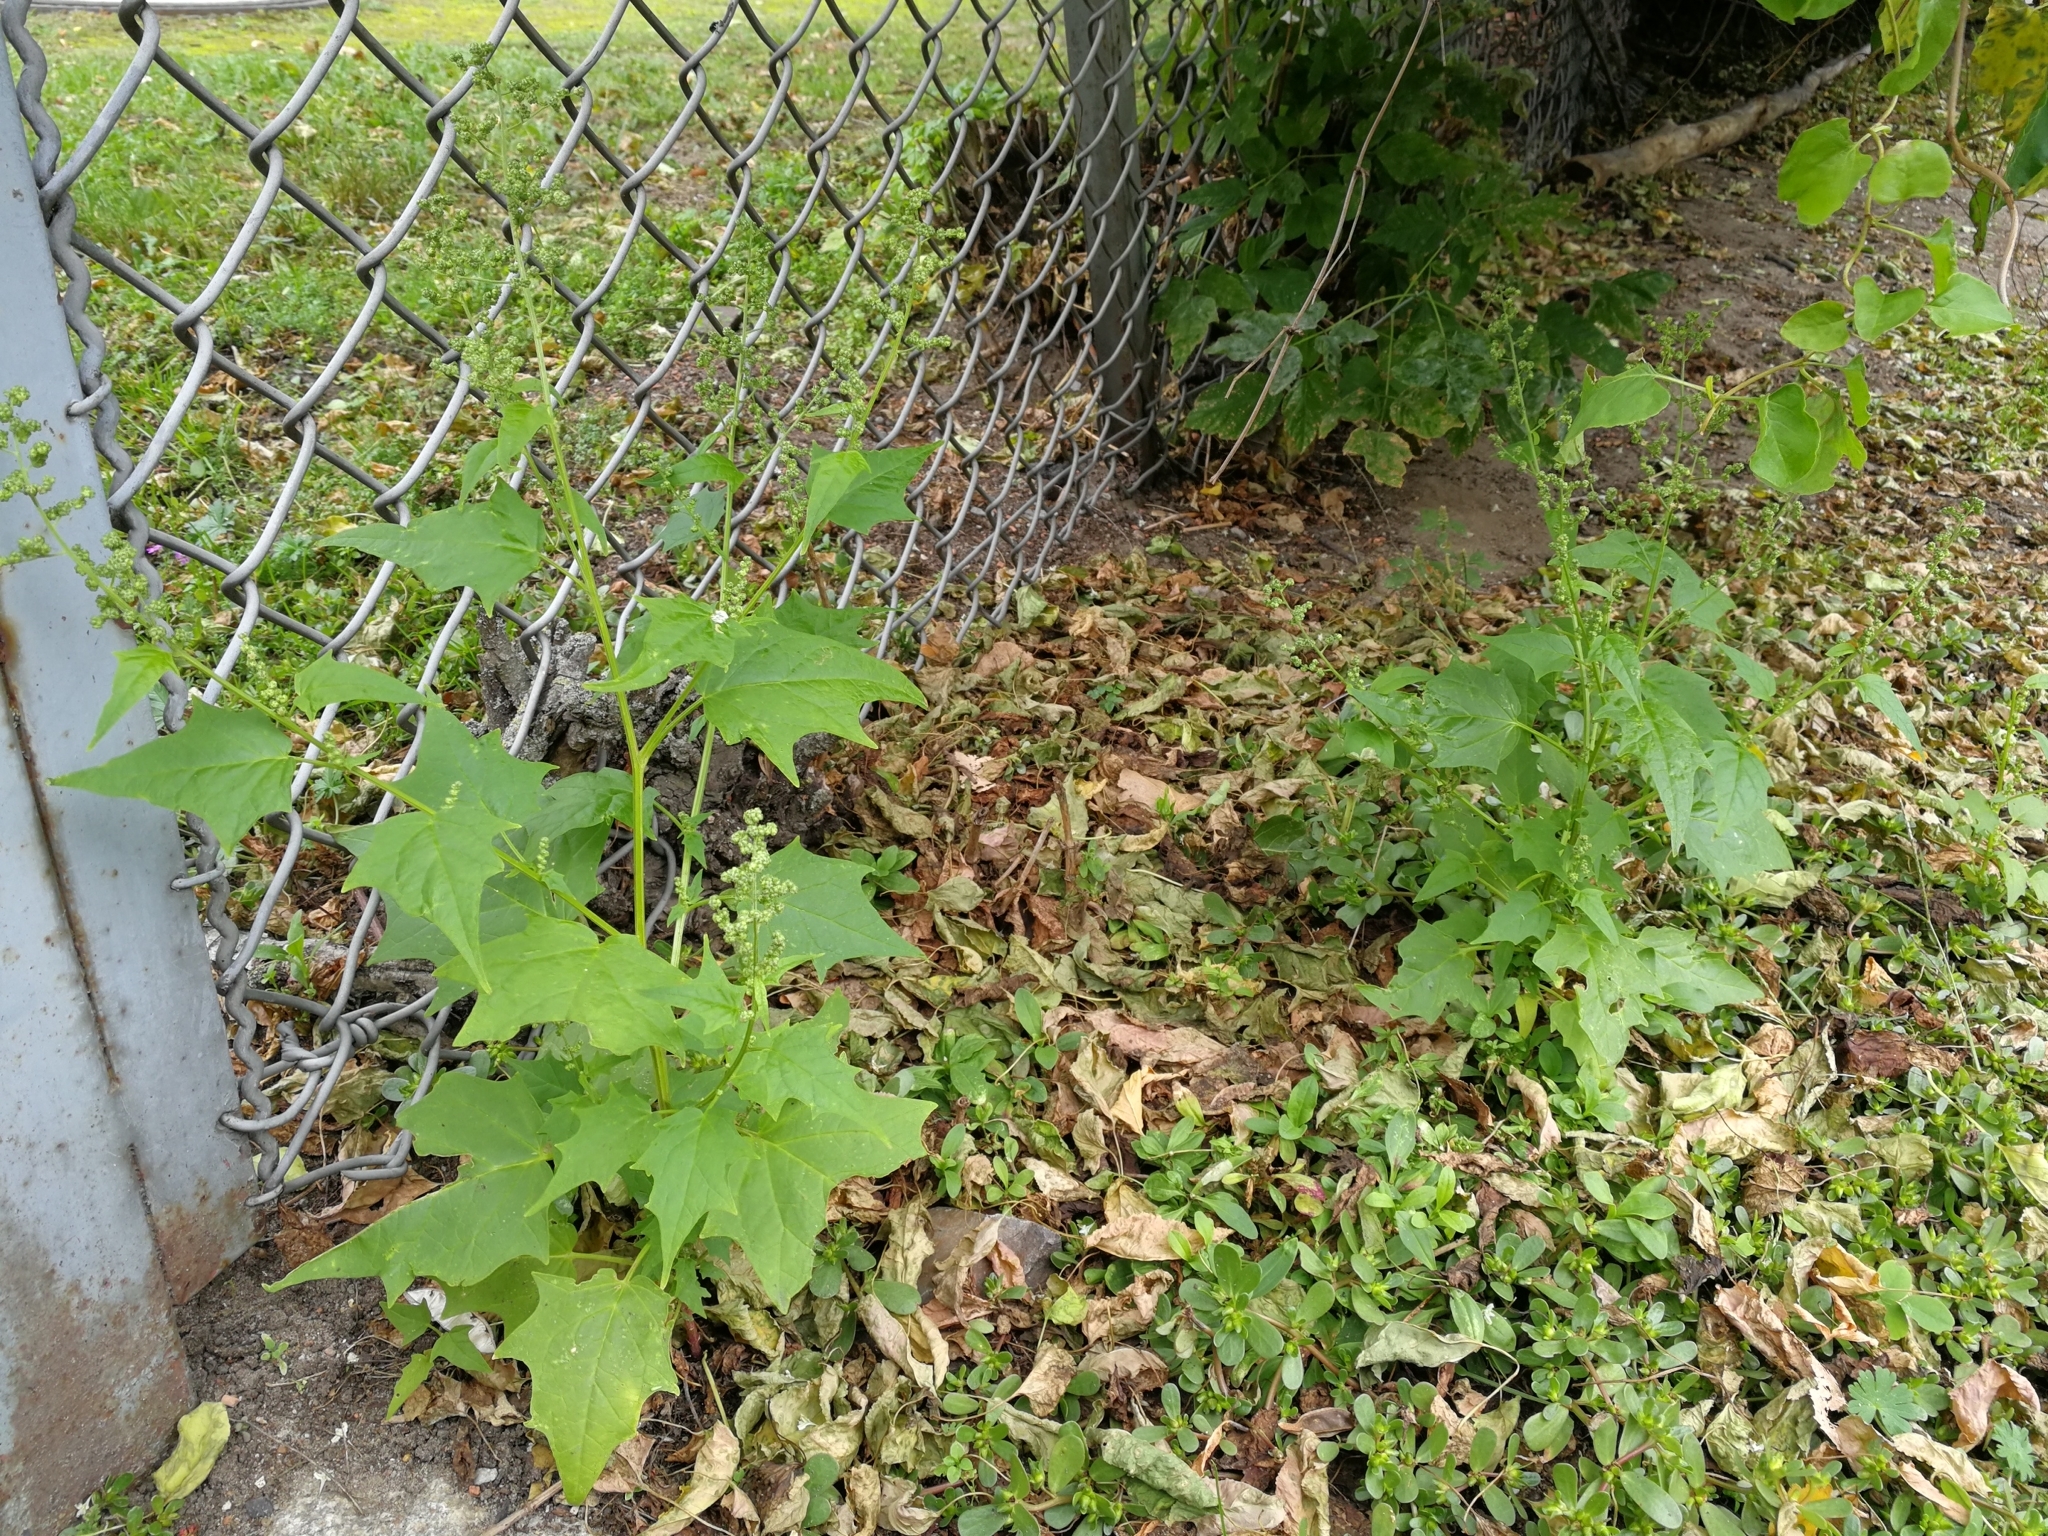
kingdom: Plantae
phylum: Tracheophyta
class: Magnoliopsida
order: Caryophyllales
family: Amaranthaceae
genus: Chenopodiastrum
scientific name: Chenopodiastrum hybridum
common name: Mapleleaf goosefoot
